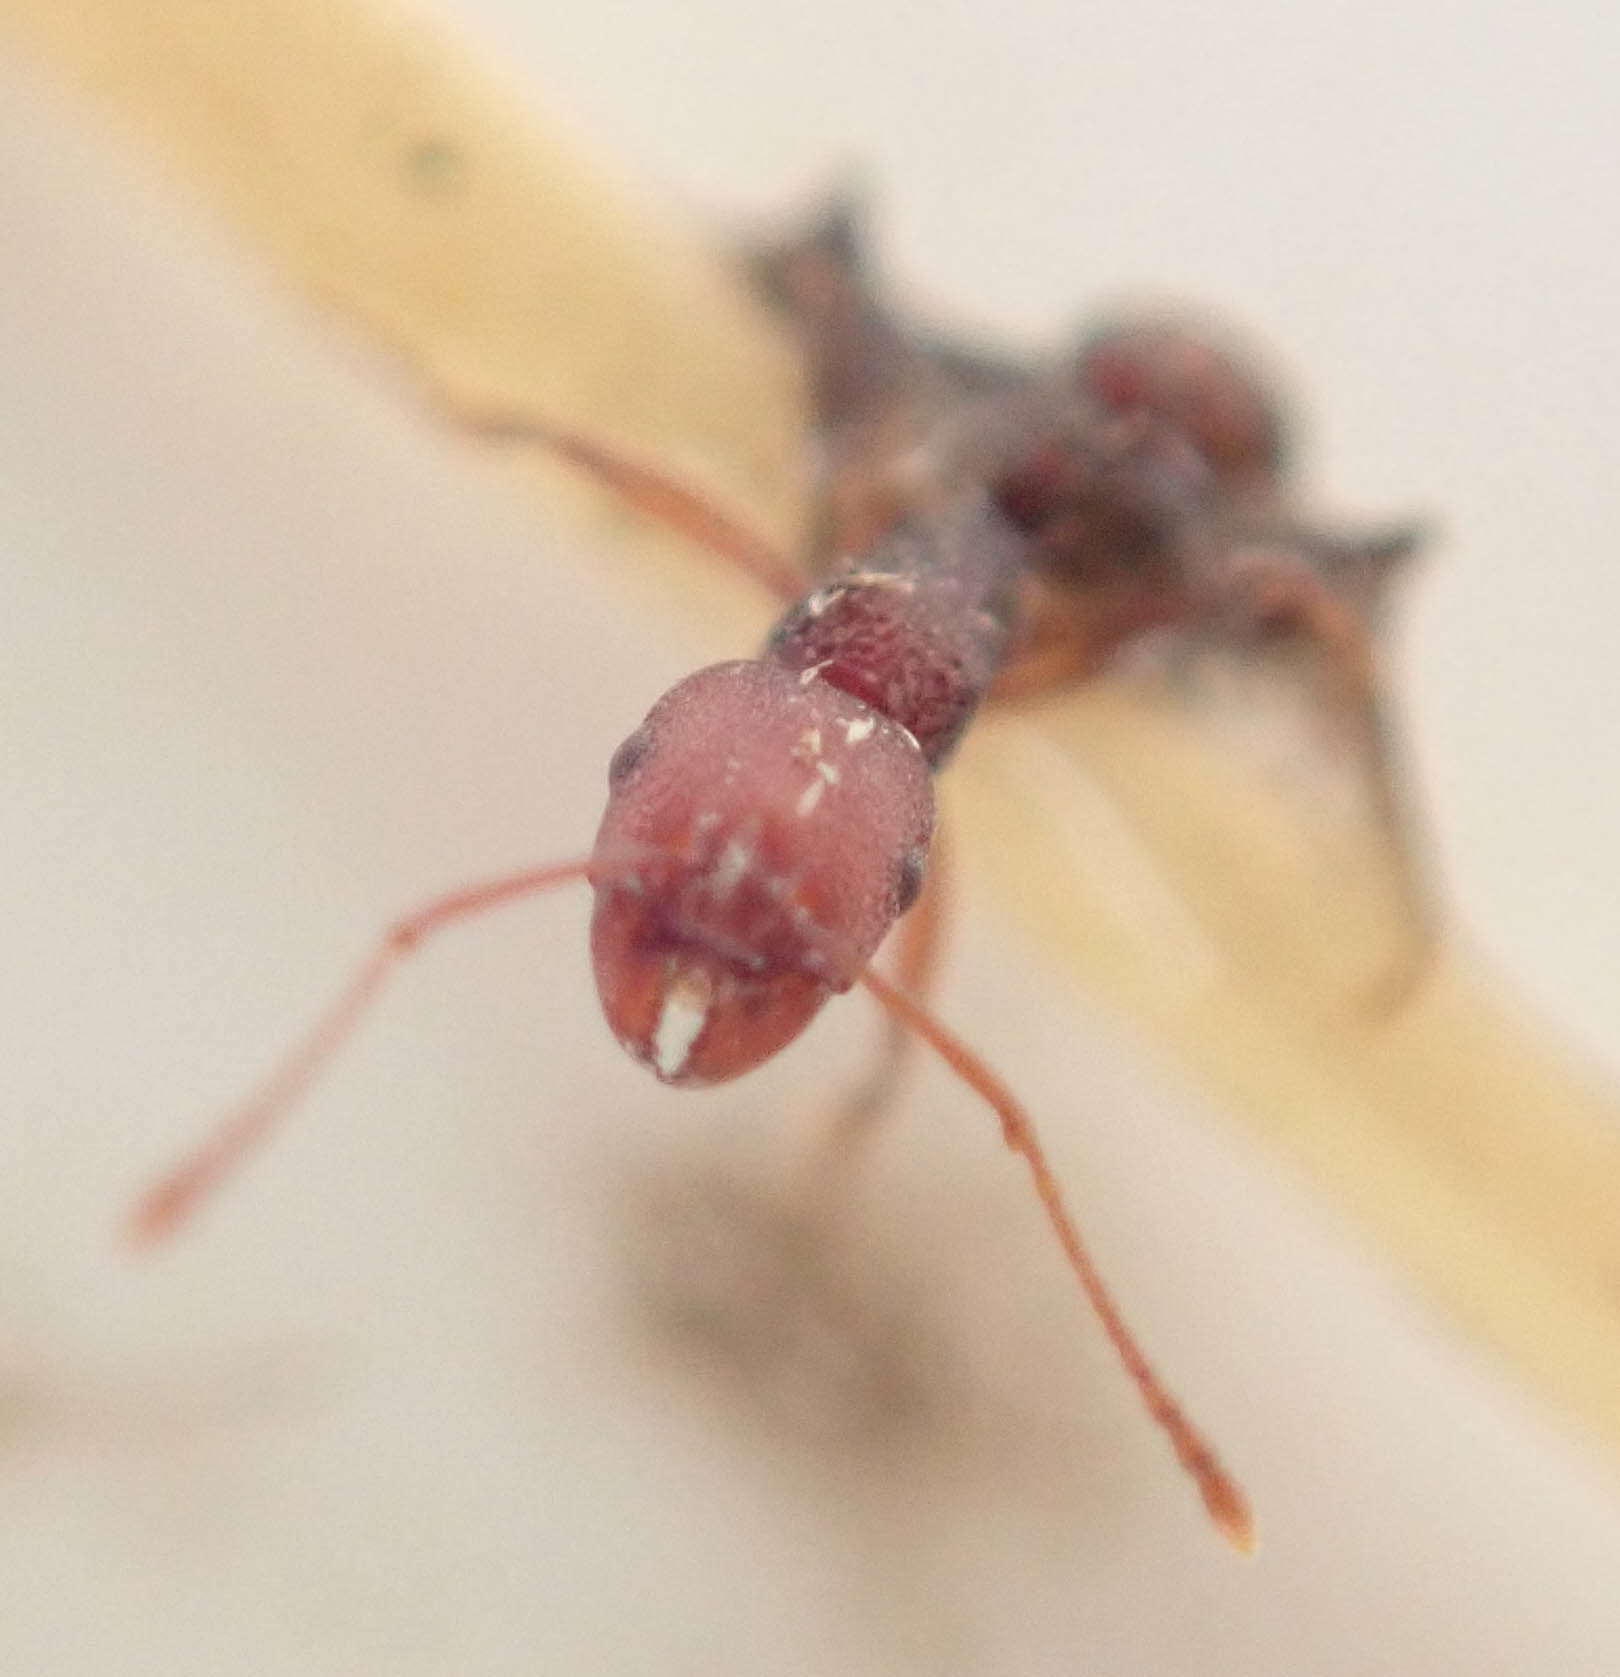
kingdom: Animalia
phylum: Arthropoda
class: Insecta
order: Hymenoptera
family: Formicidae
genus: Tetramorium
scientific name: Tetramorium sericeiventre
